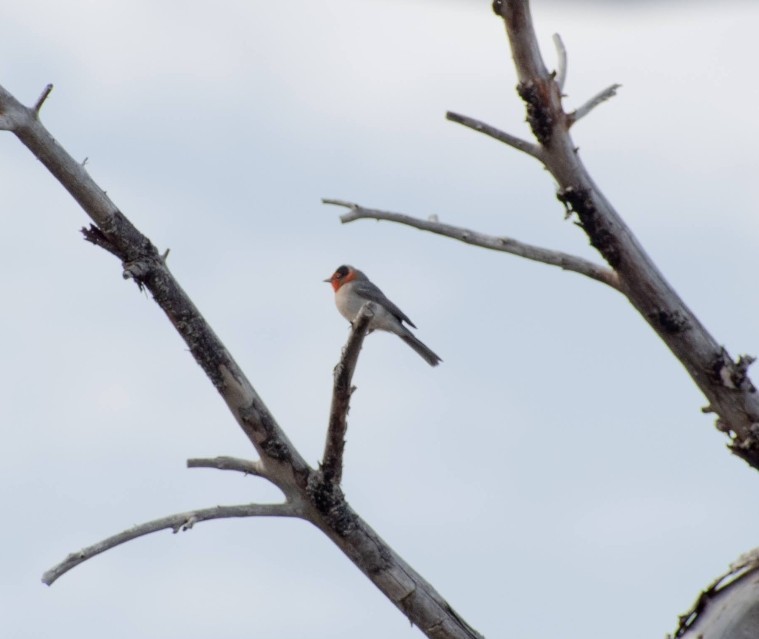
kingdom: Animalia
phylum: Chordata
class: Aves
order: Passeriformes
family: Parulidae
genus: Cardellina
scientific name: Cardellina rubrifrons
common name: Red-faced warbler
